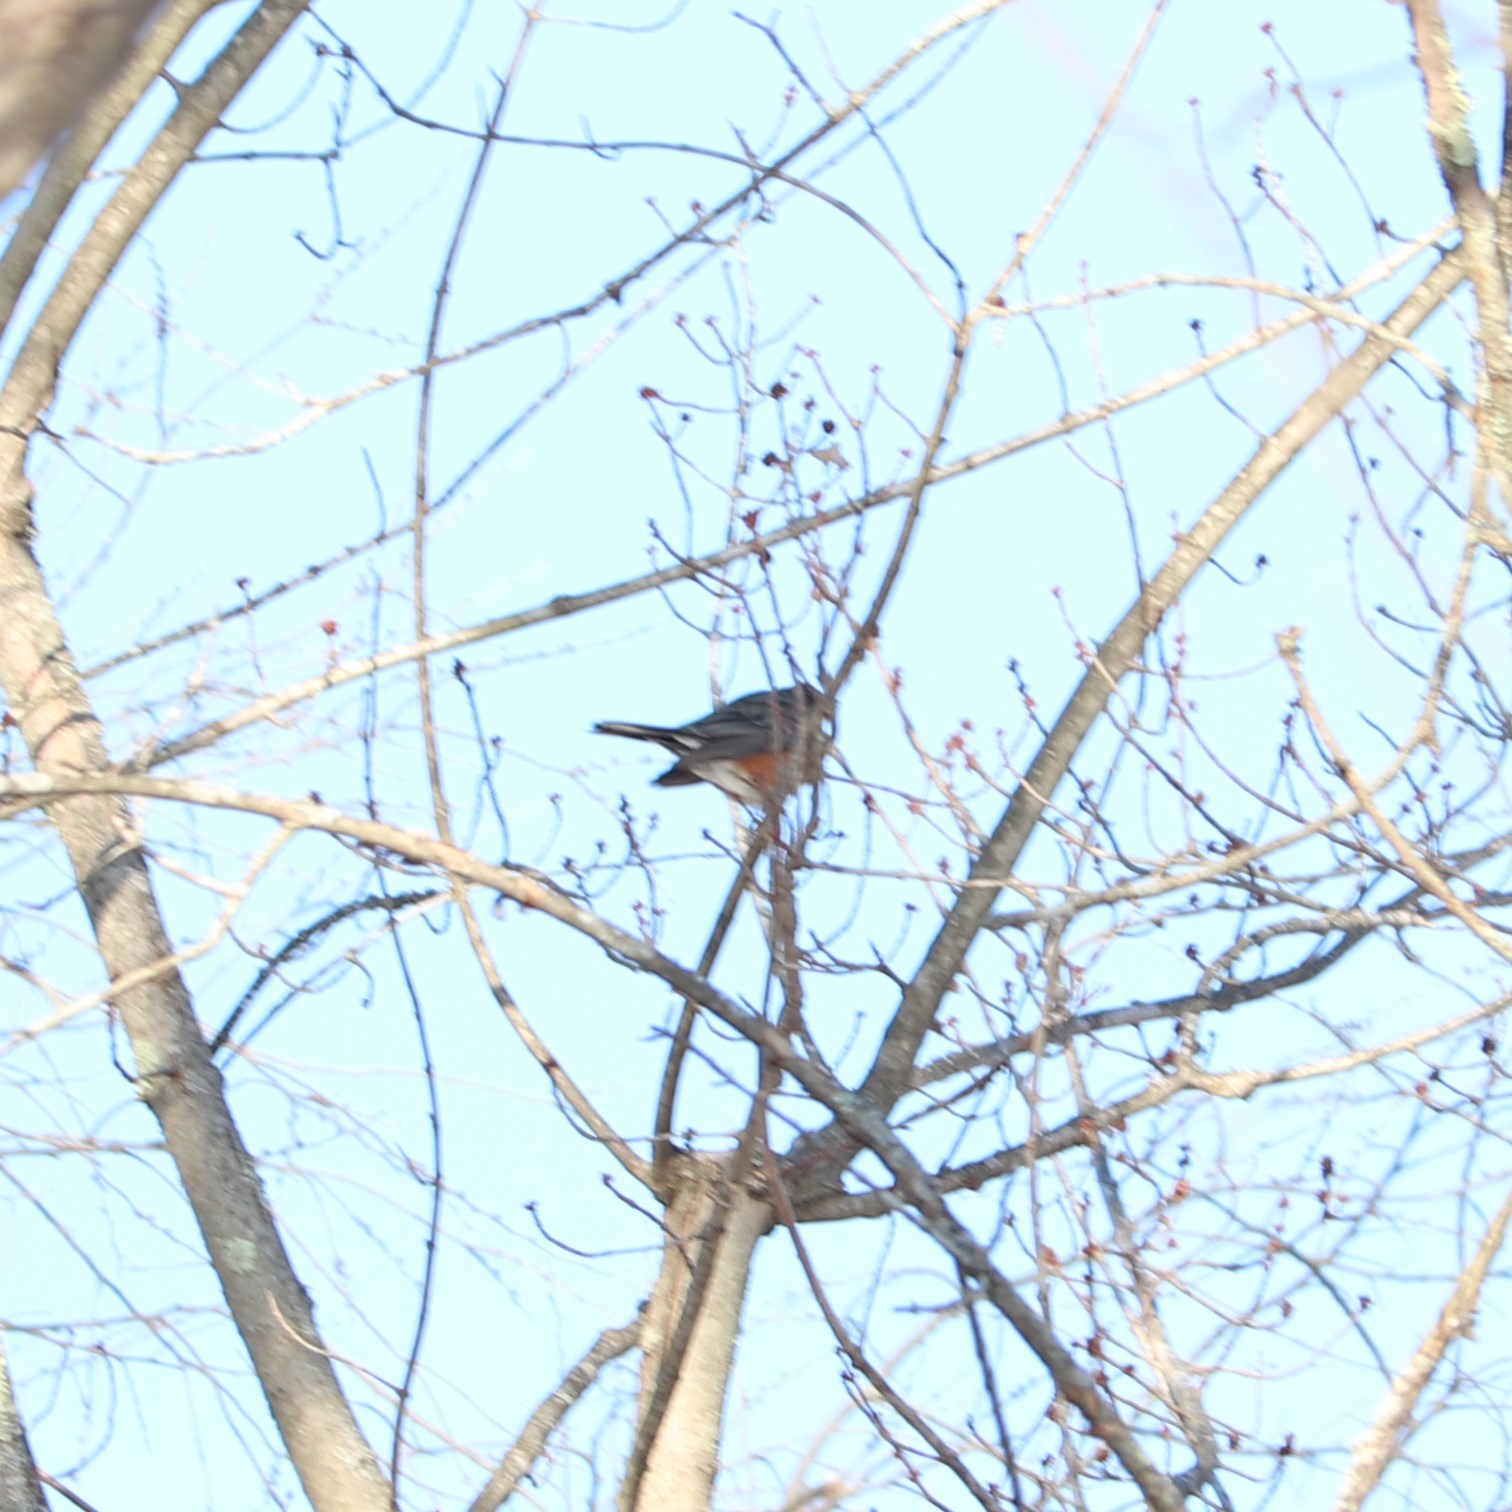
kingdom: Animalia
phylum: Chordata
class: Aves
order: Passeriformes
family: Turdidae
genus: Turdus
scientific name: Turdus migratorius
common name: American robin
